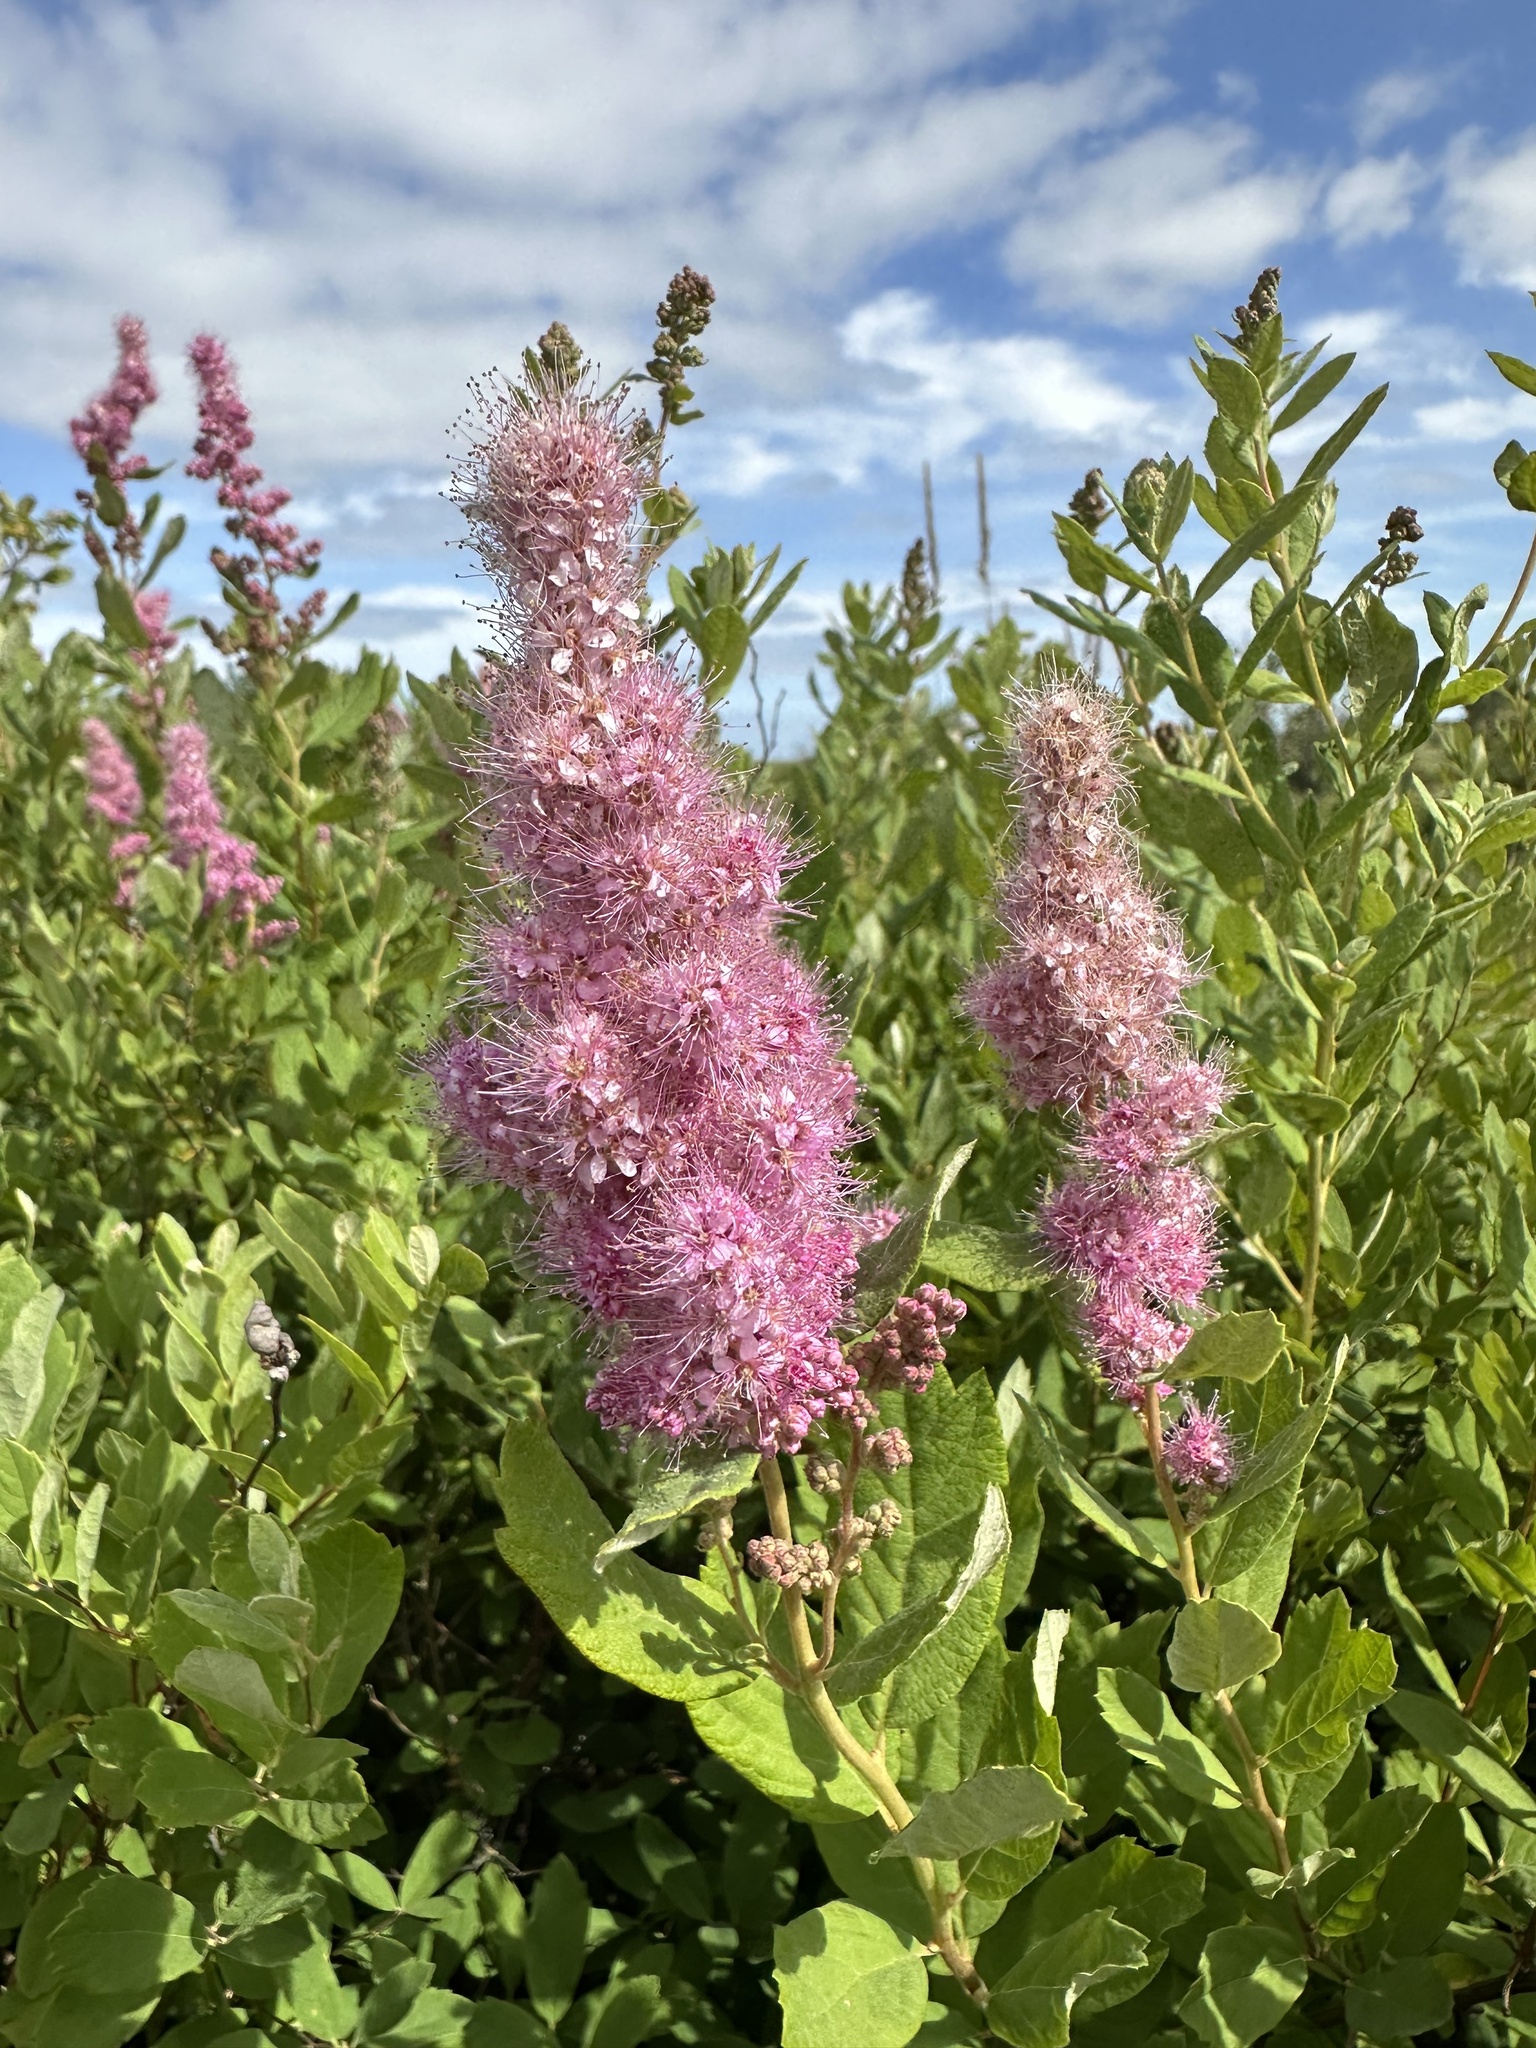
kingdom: Plantae
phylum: Tracheophyta
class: Magnoliopsida
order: Rosales
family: Rosaceae
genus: Spiraea
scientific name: Spiraea douglasii
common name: Steeplebush
